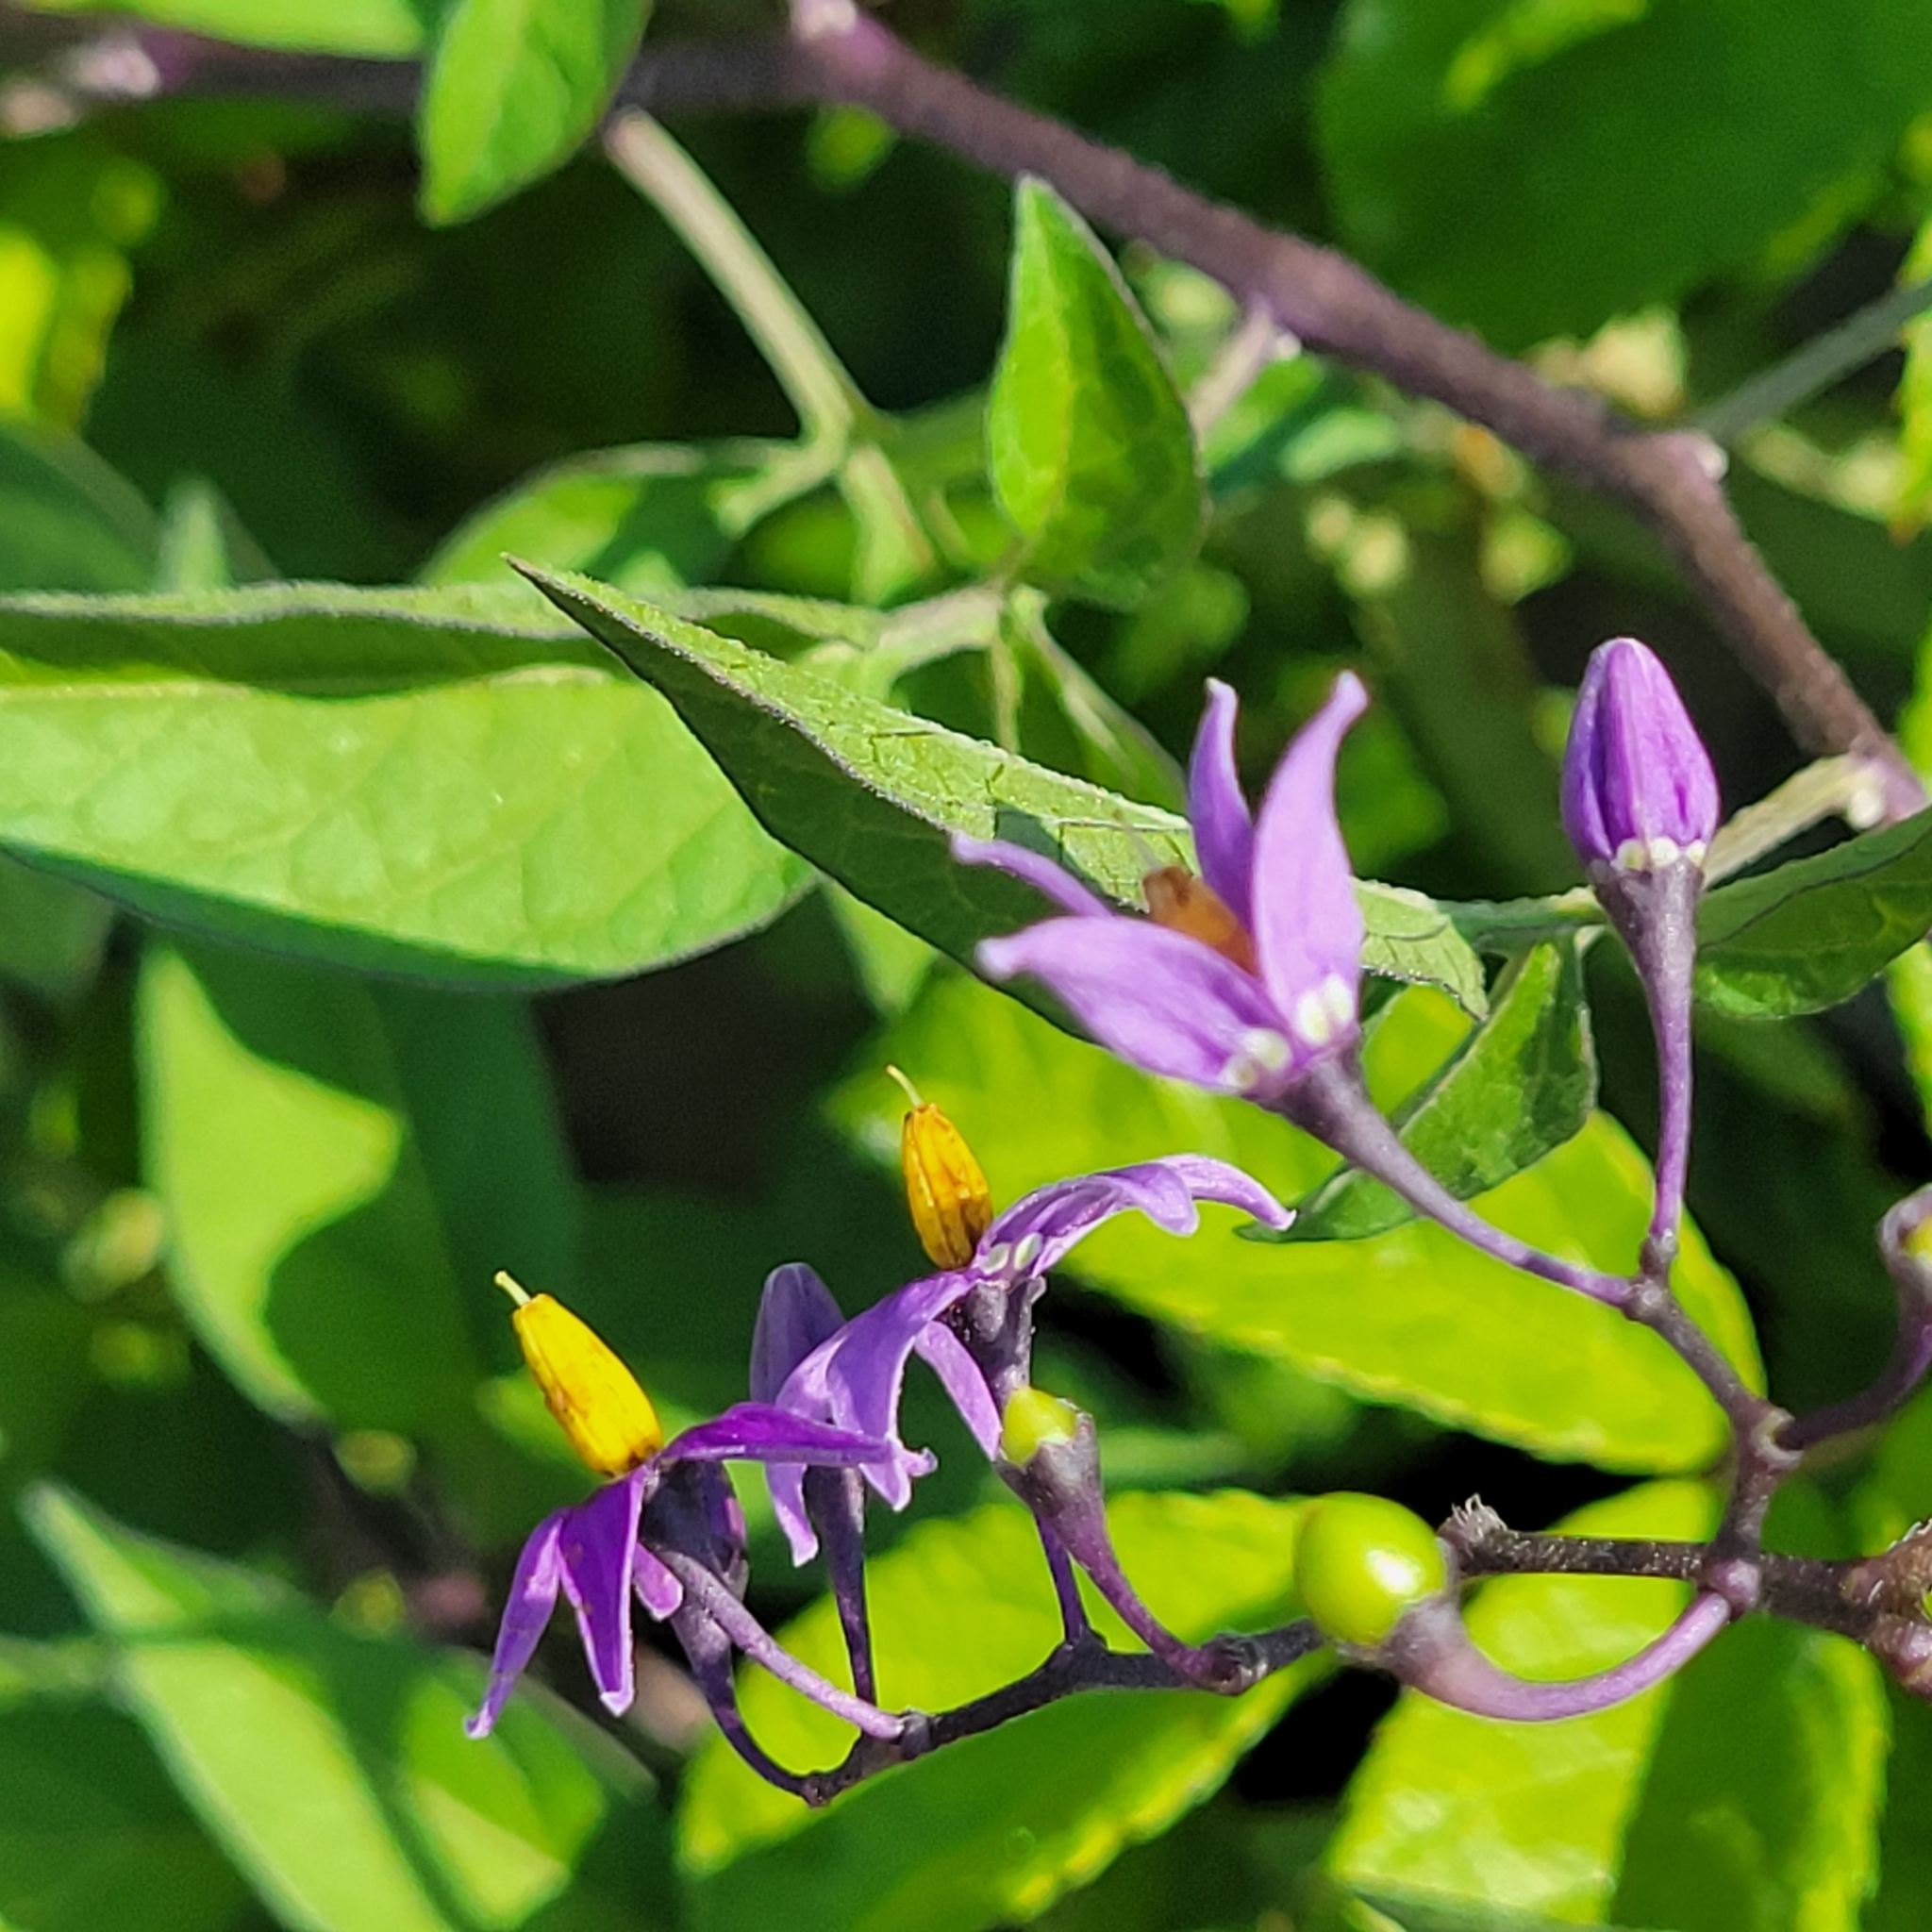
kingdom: Plantae
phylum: Tracheophyta
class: Magnoliopsida
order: Solanales
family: Solanaceae
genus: Solanum
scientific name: Solanum dulcamara
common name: Climbing nightshade
